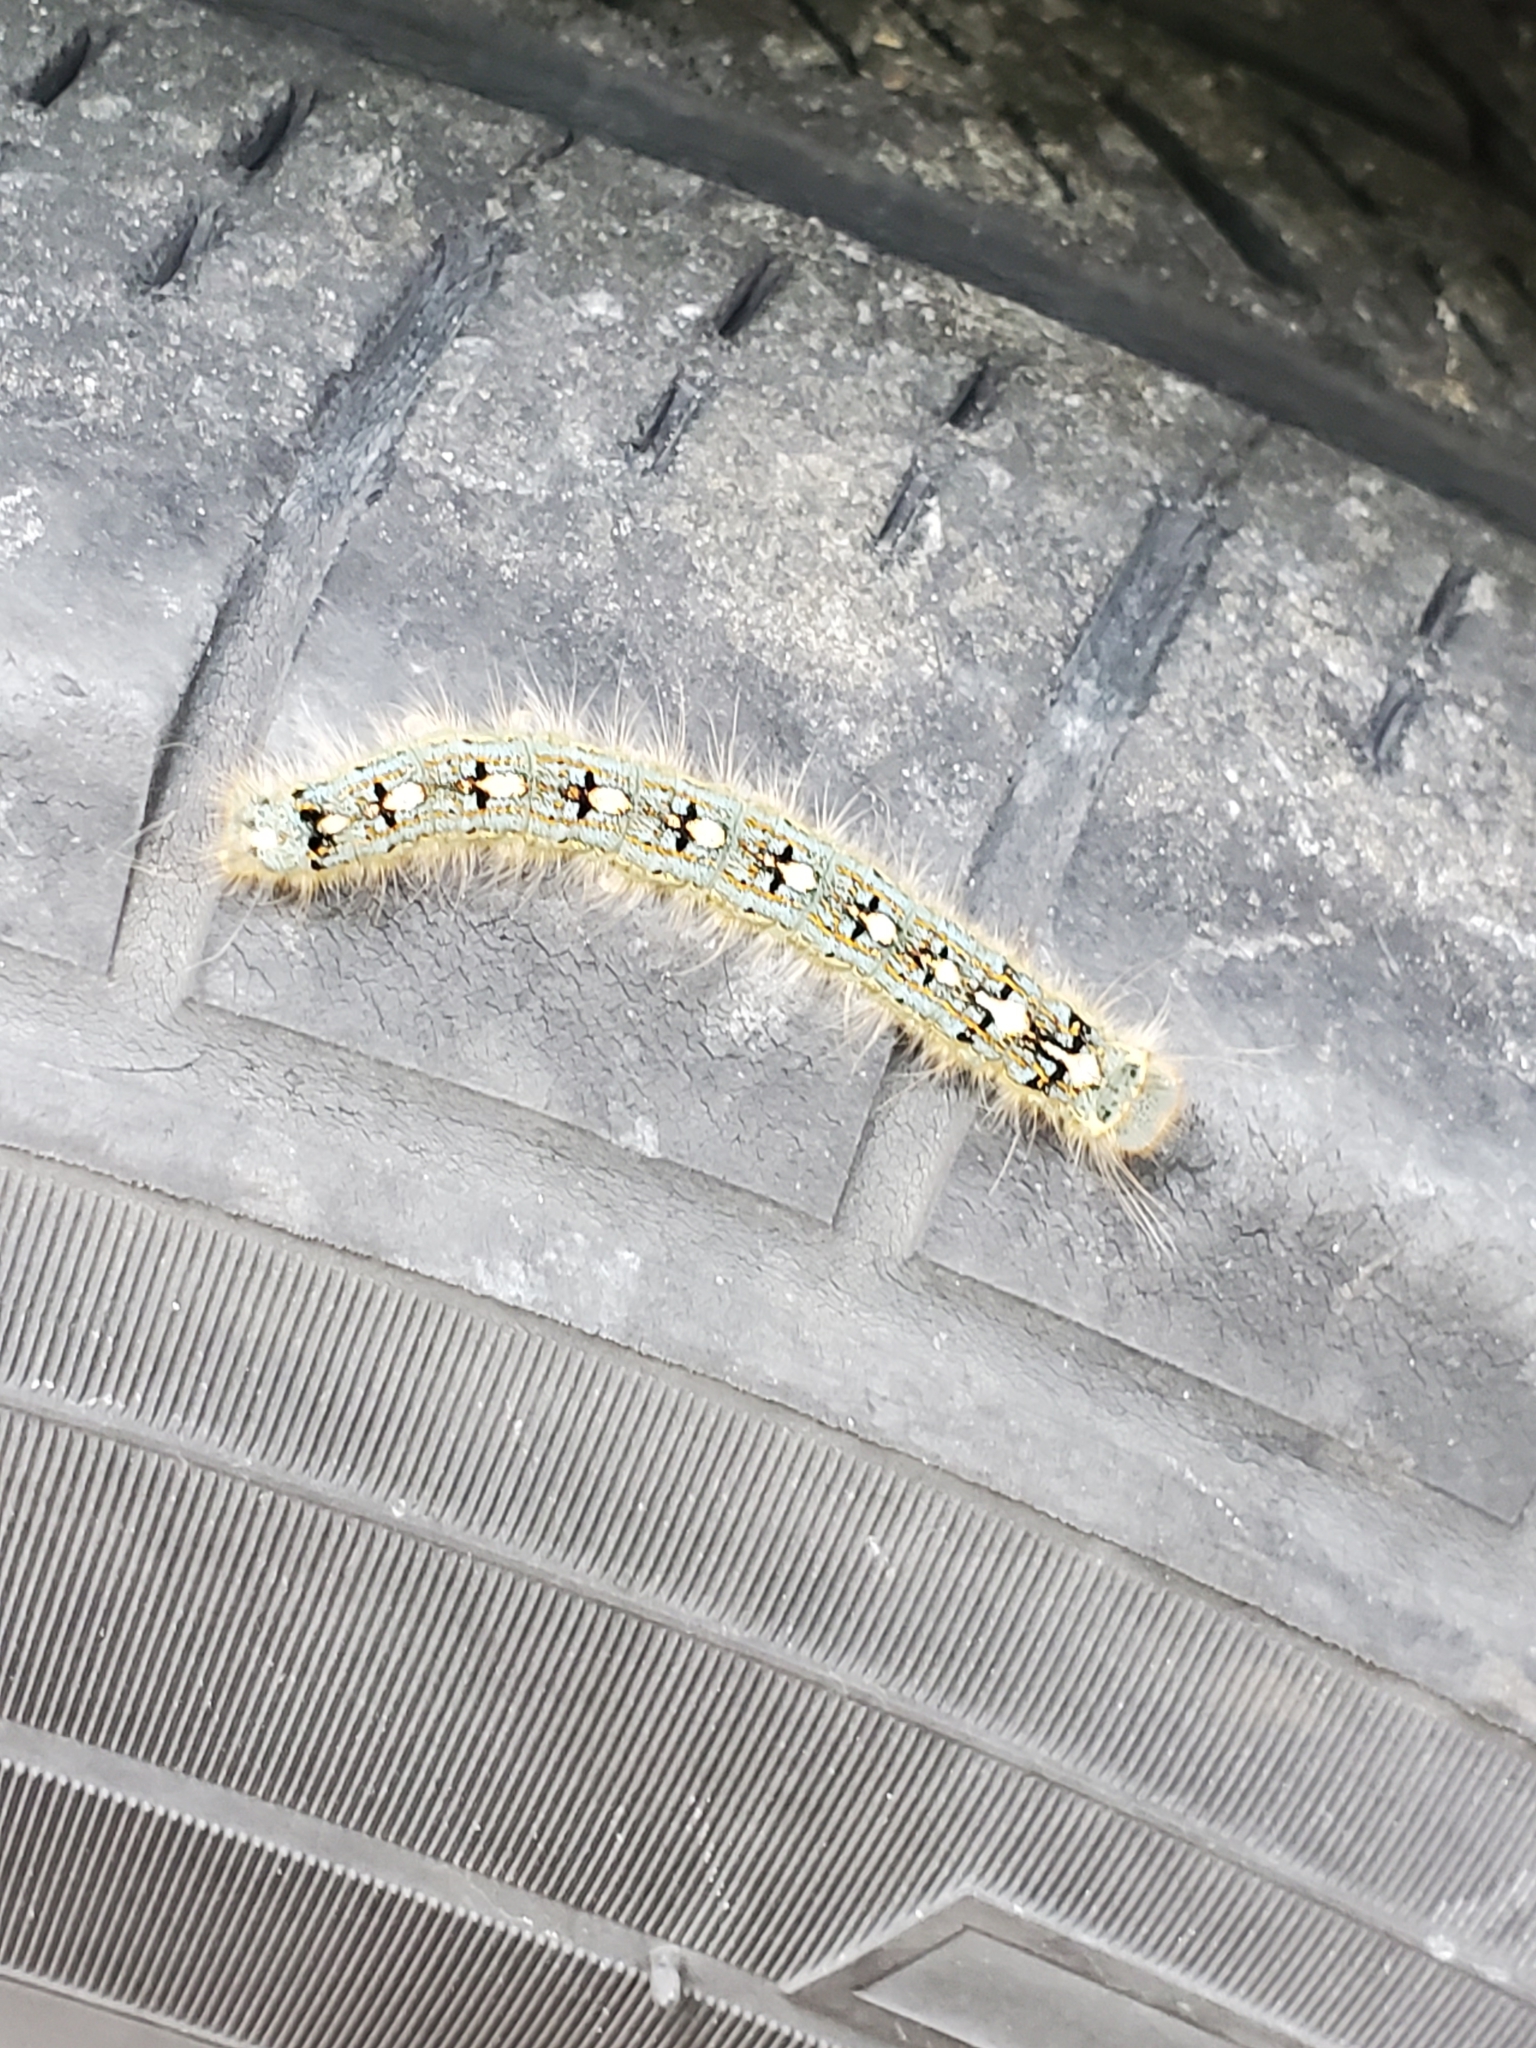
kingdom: Animalia
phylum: Arthropoda
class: Insecta
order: Lepidoptera
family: Lasiocampidae
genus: Malacosoma
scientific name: Malacosoma disstria
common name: Forest tent caterpillar
